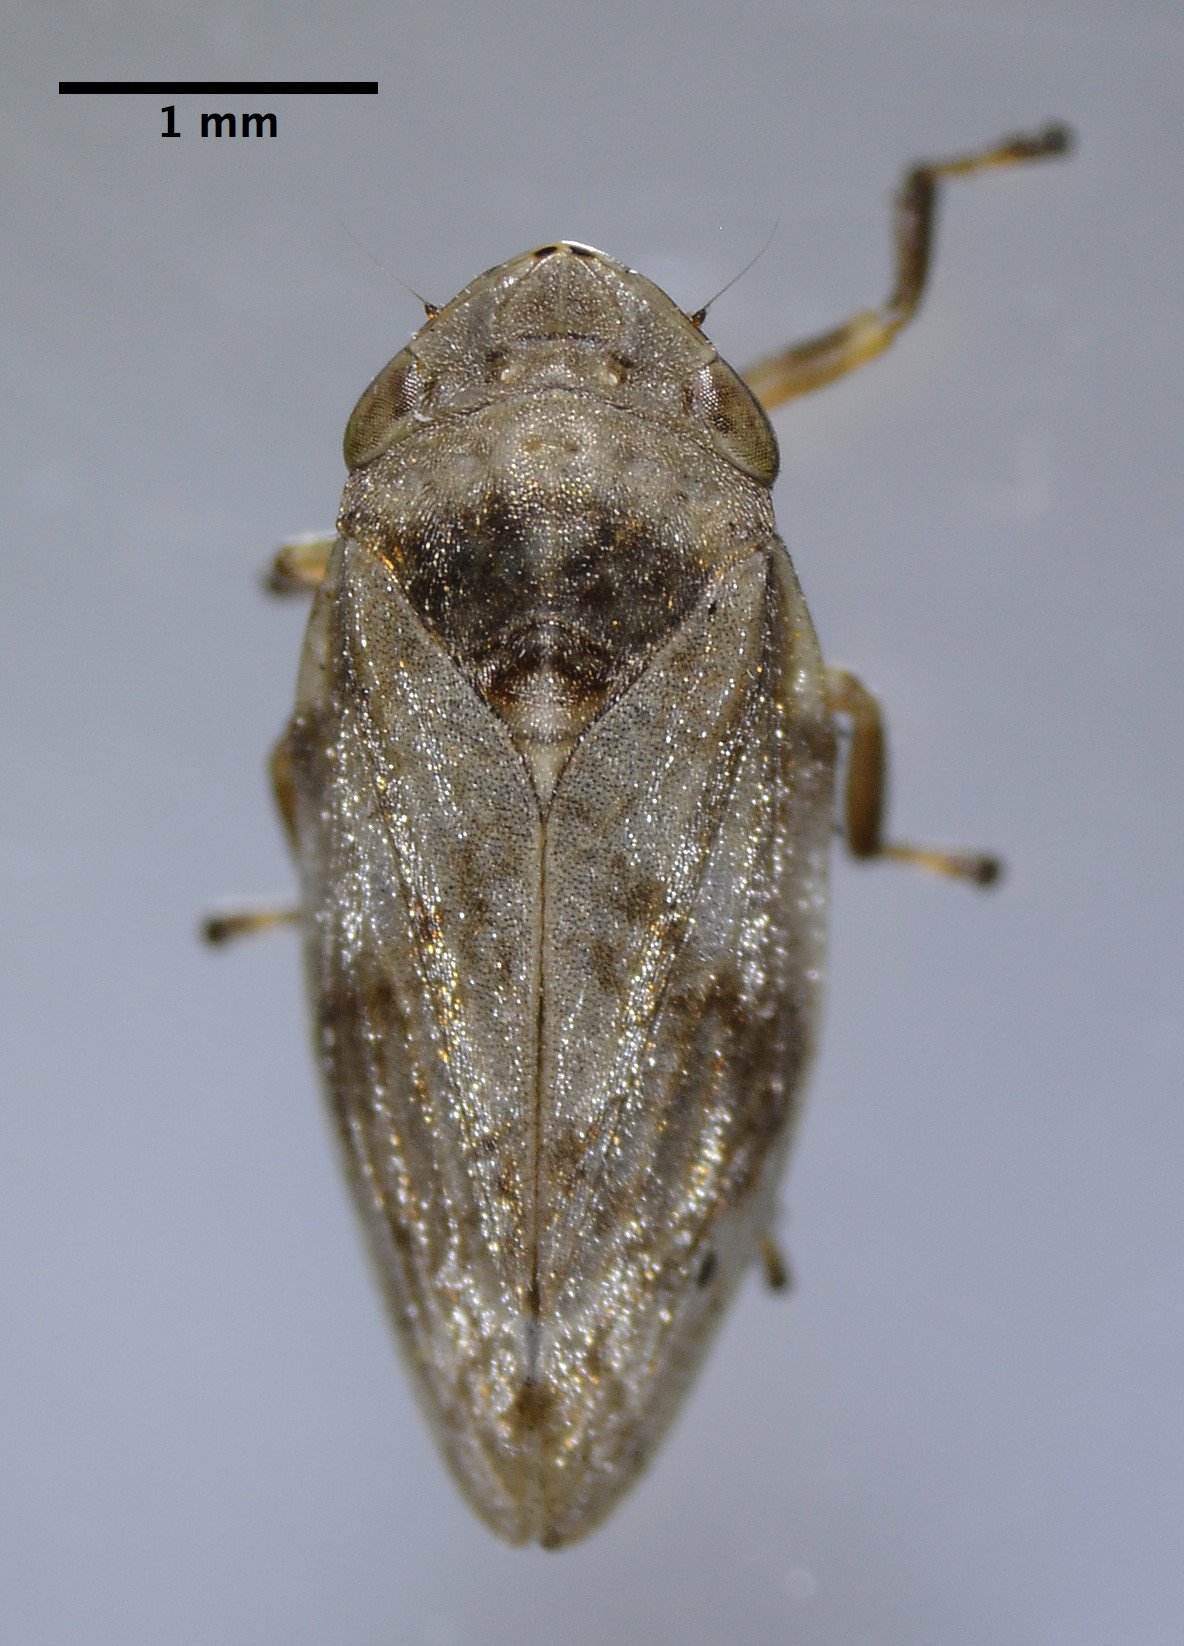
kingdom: Animalia
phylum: Arthropoda
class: Insecta
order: Hemiptera
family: Aphrophoridae
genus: Philaenus
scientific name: Philaenus spumarius
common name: Meadow spittlebug
